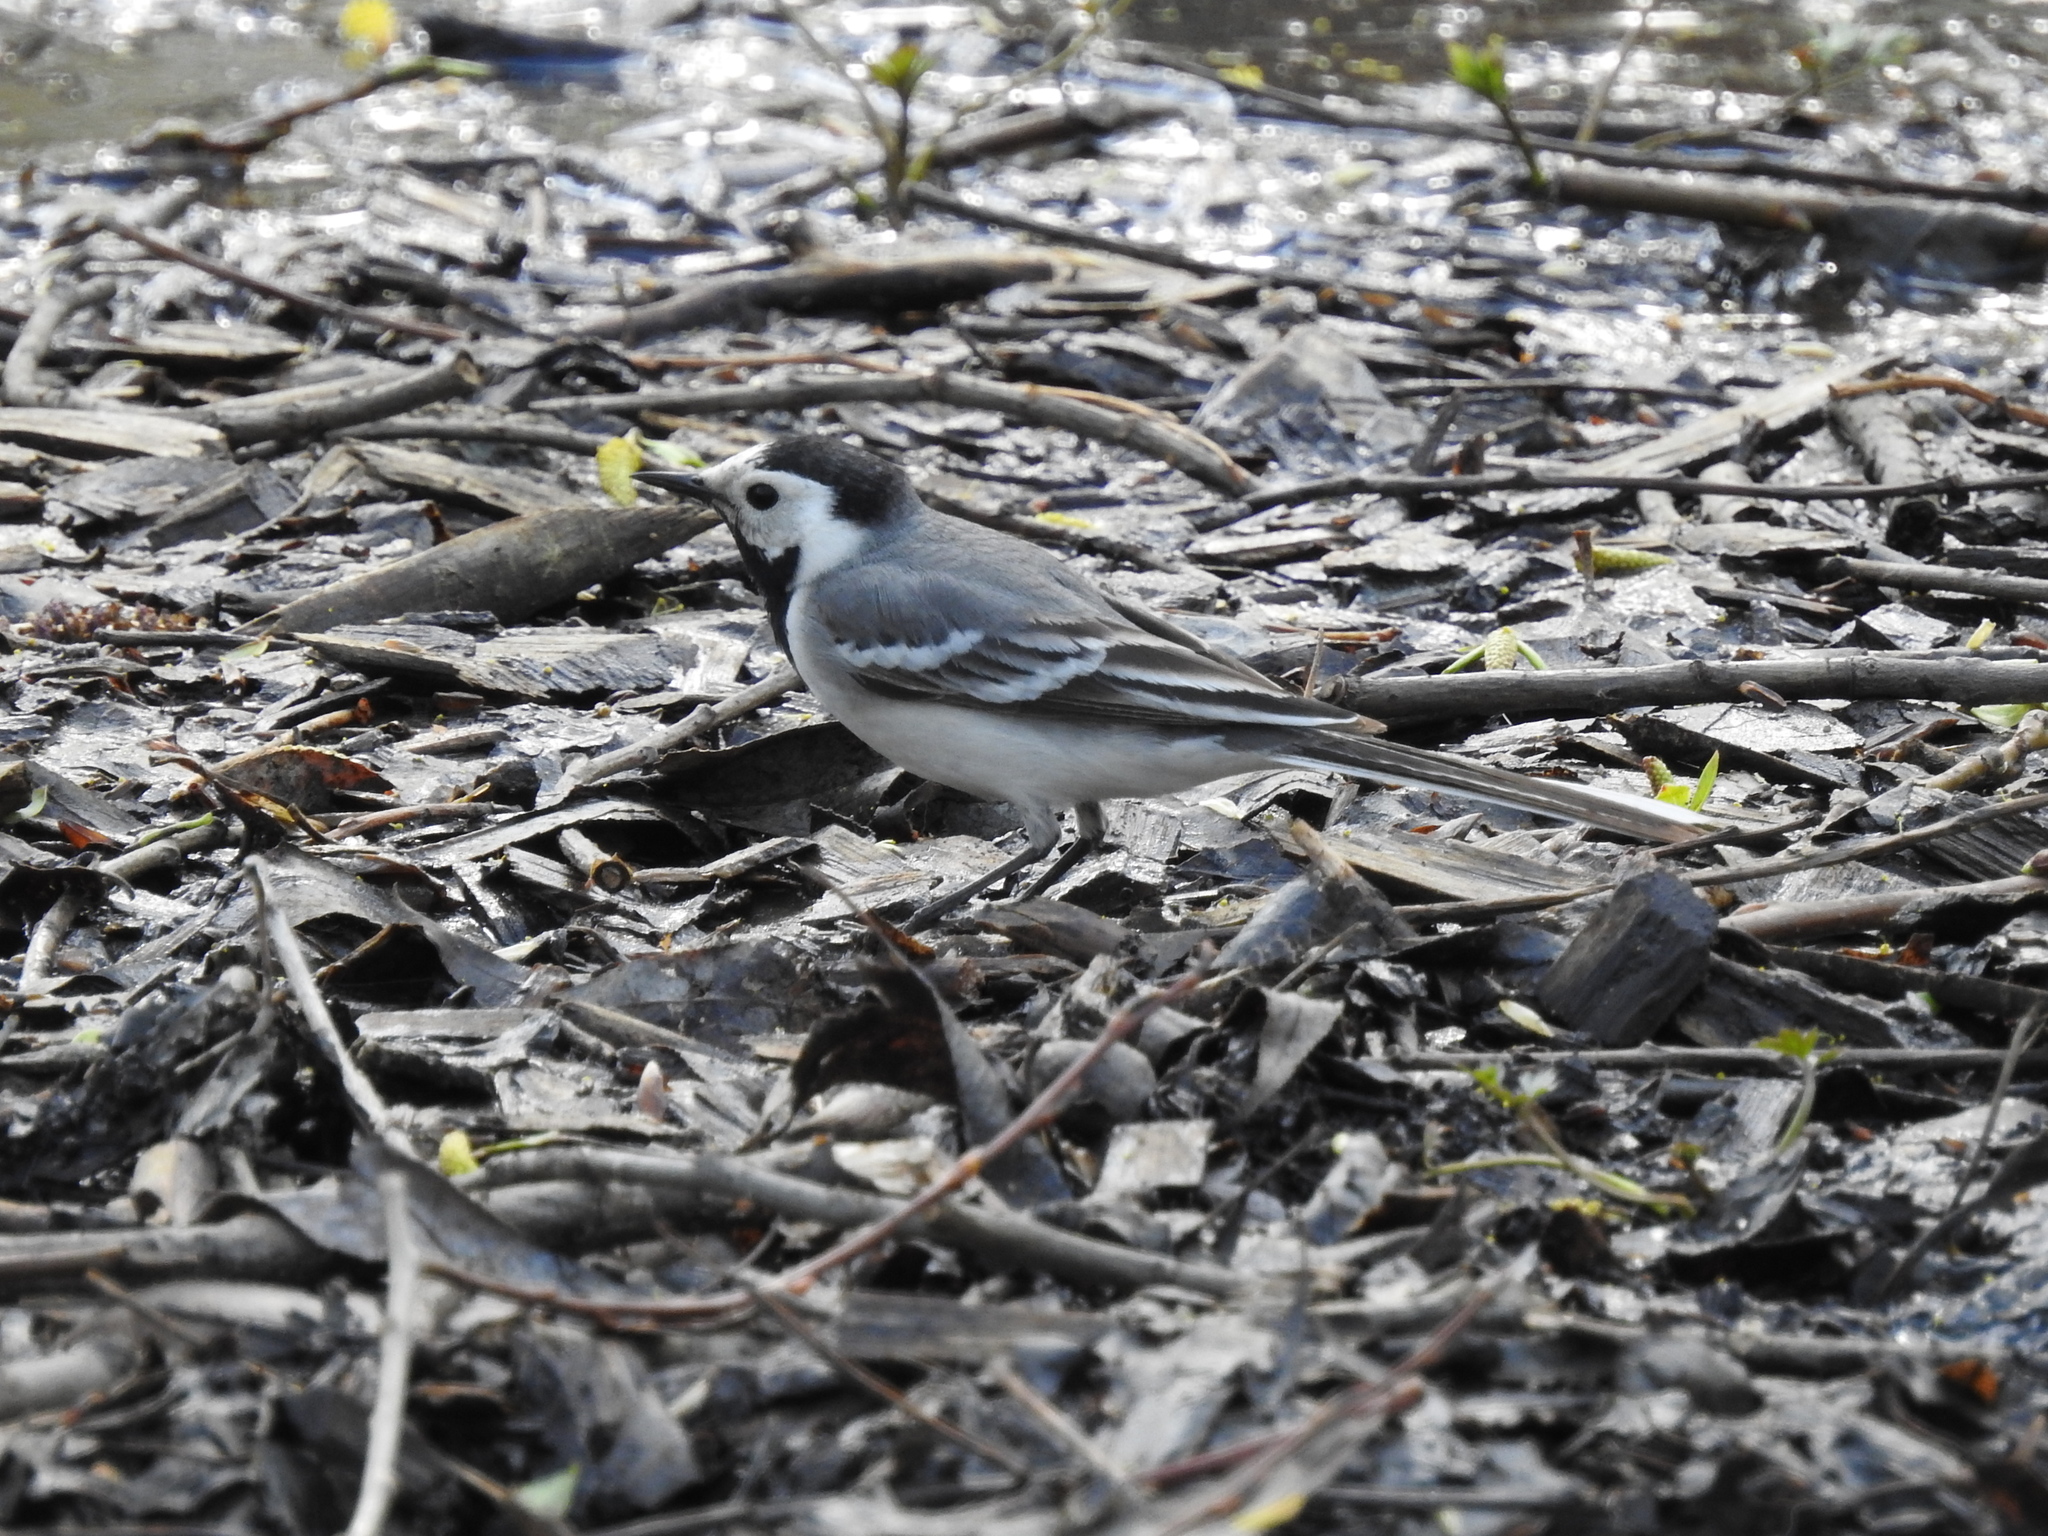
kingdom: Animalia
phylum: Chordata
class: Aves
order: Passeriformes
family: Motacillidae
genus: Motacilla
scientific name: Motacilla alba
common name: White wagtail
